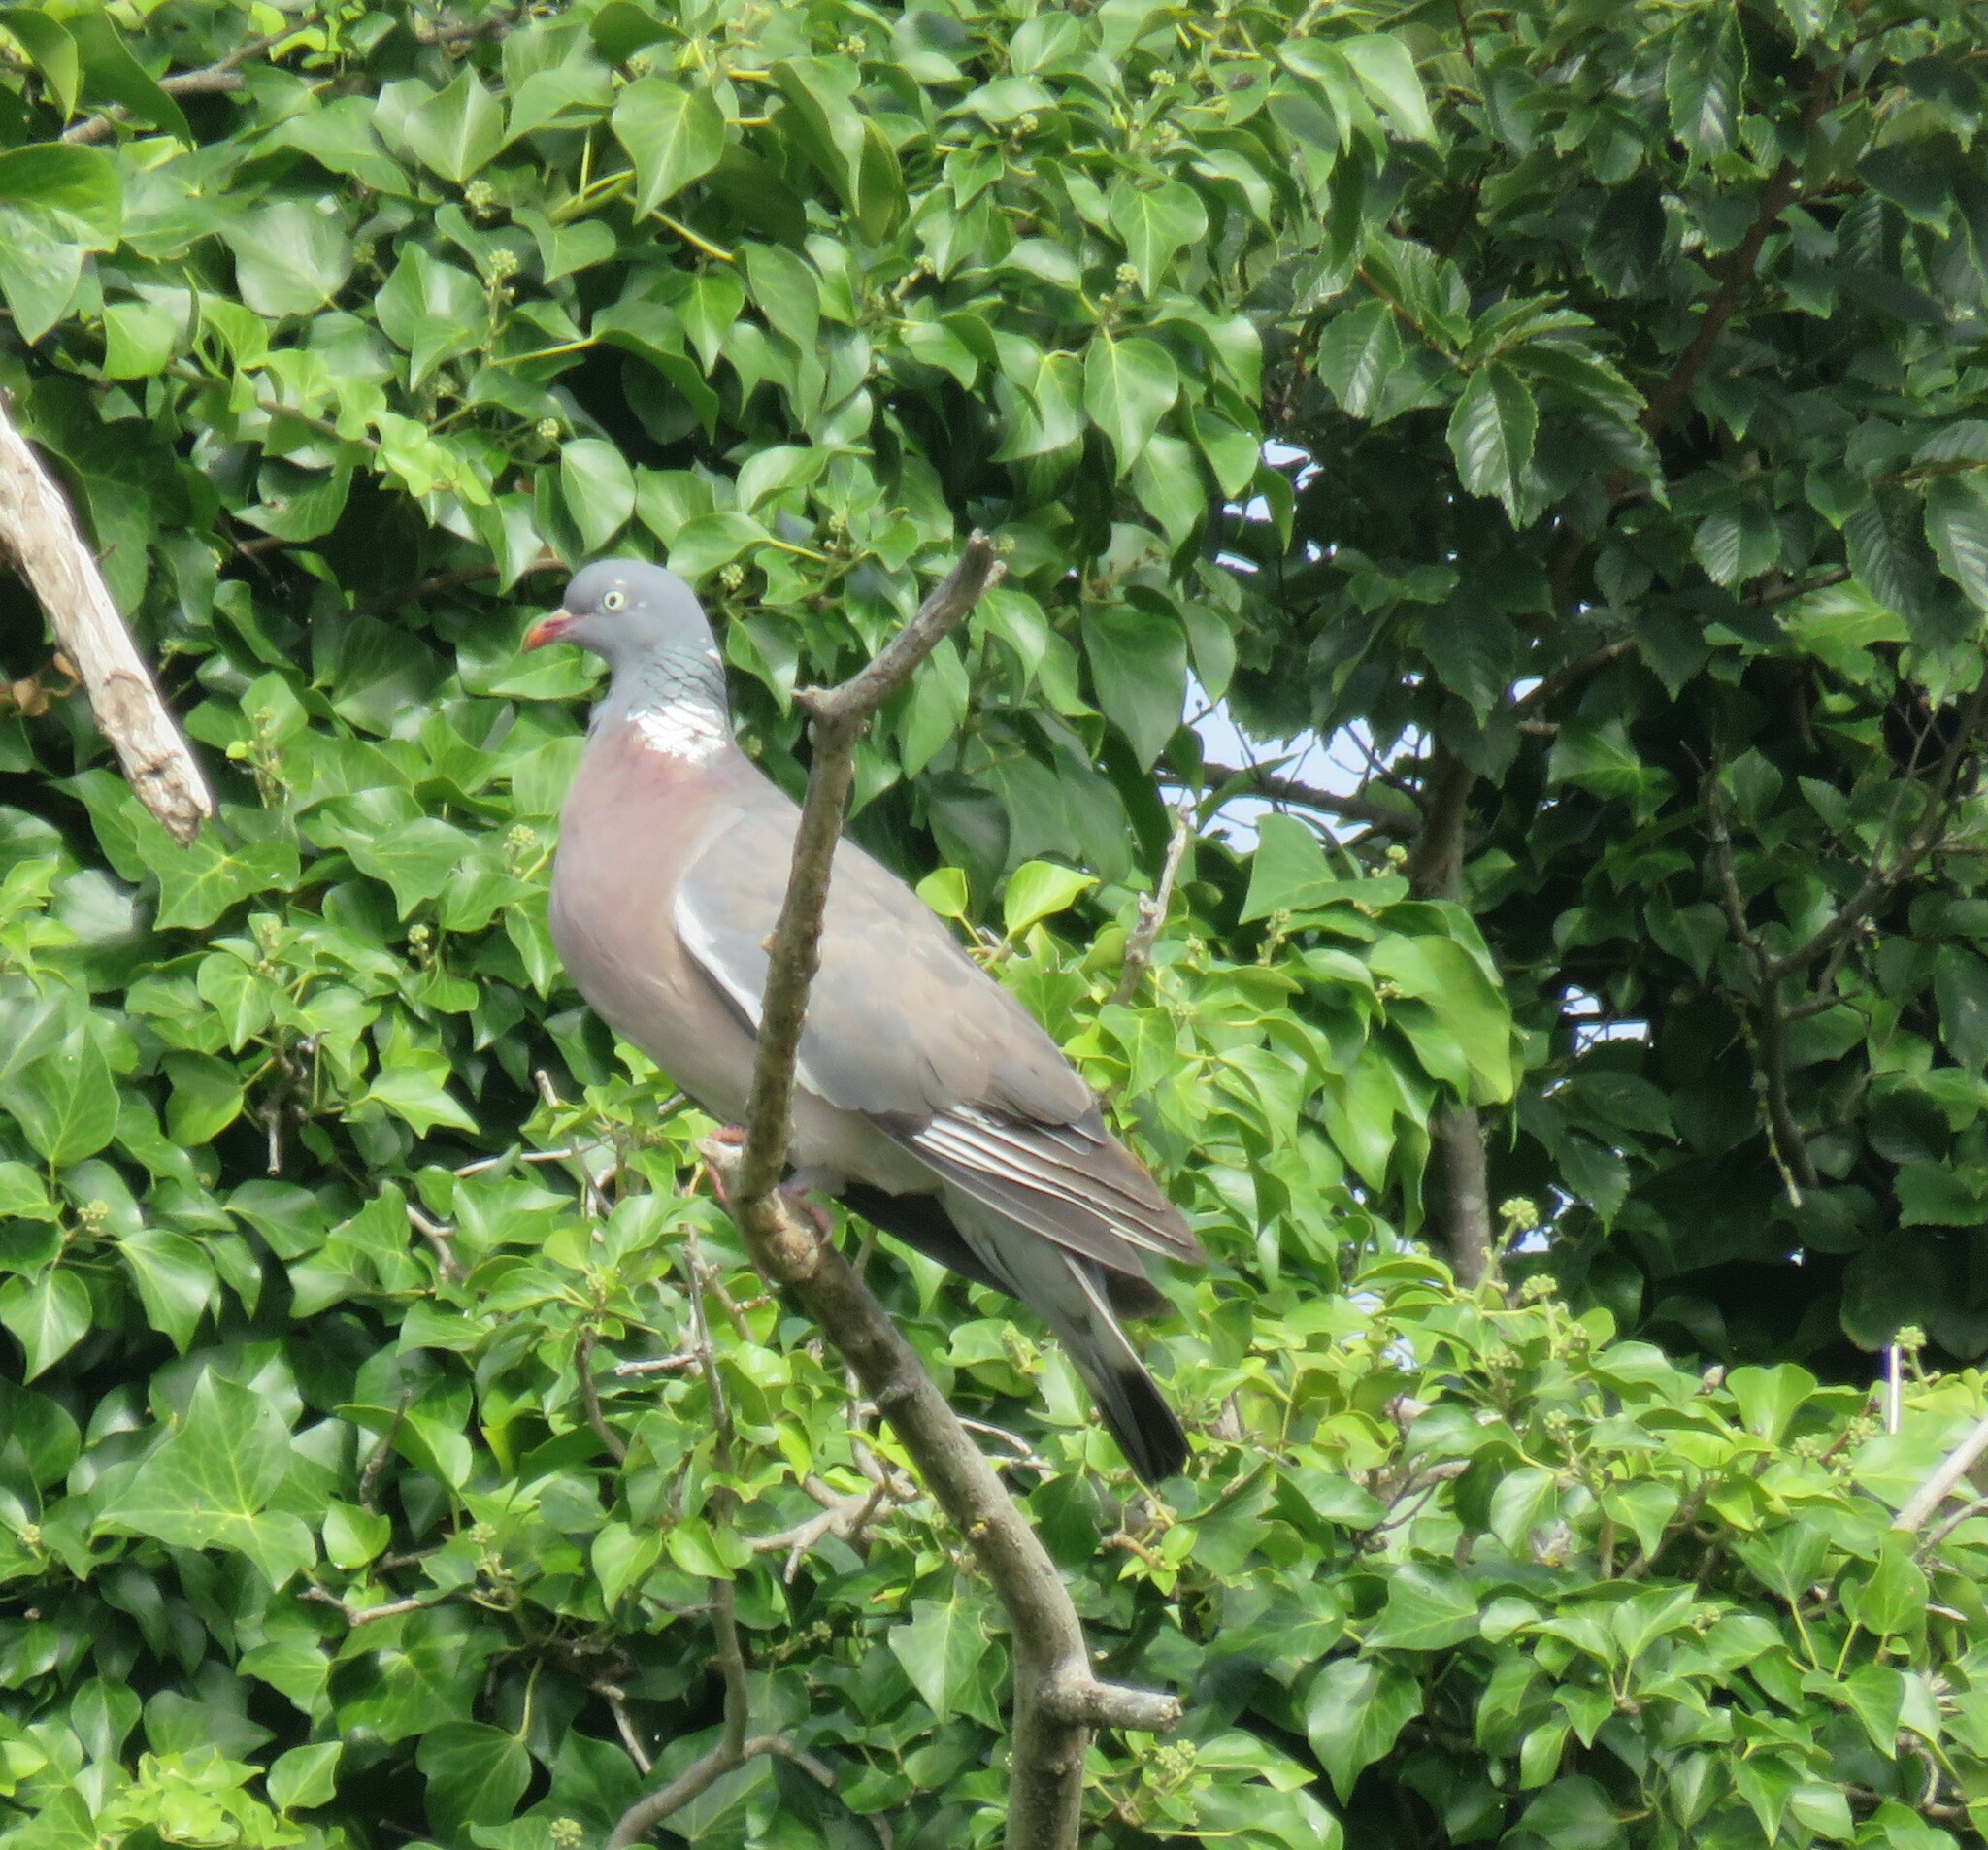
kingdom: Animalia
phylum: Chordata
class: Aves
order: Columbiformes
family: Columbidae
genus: Columba
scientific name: Columba palumbus
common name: Common wood pigeon
